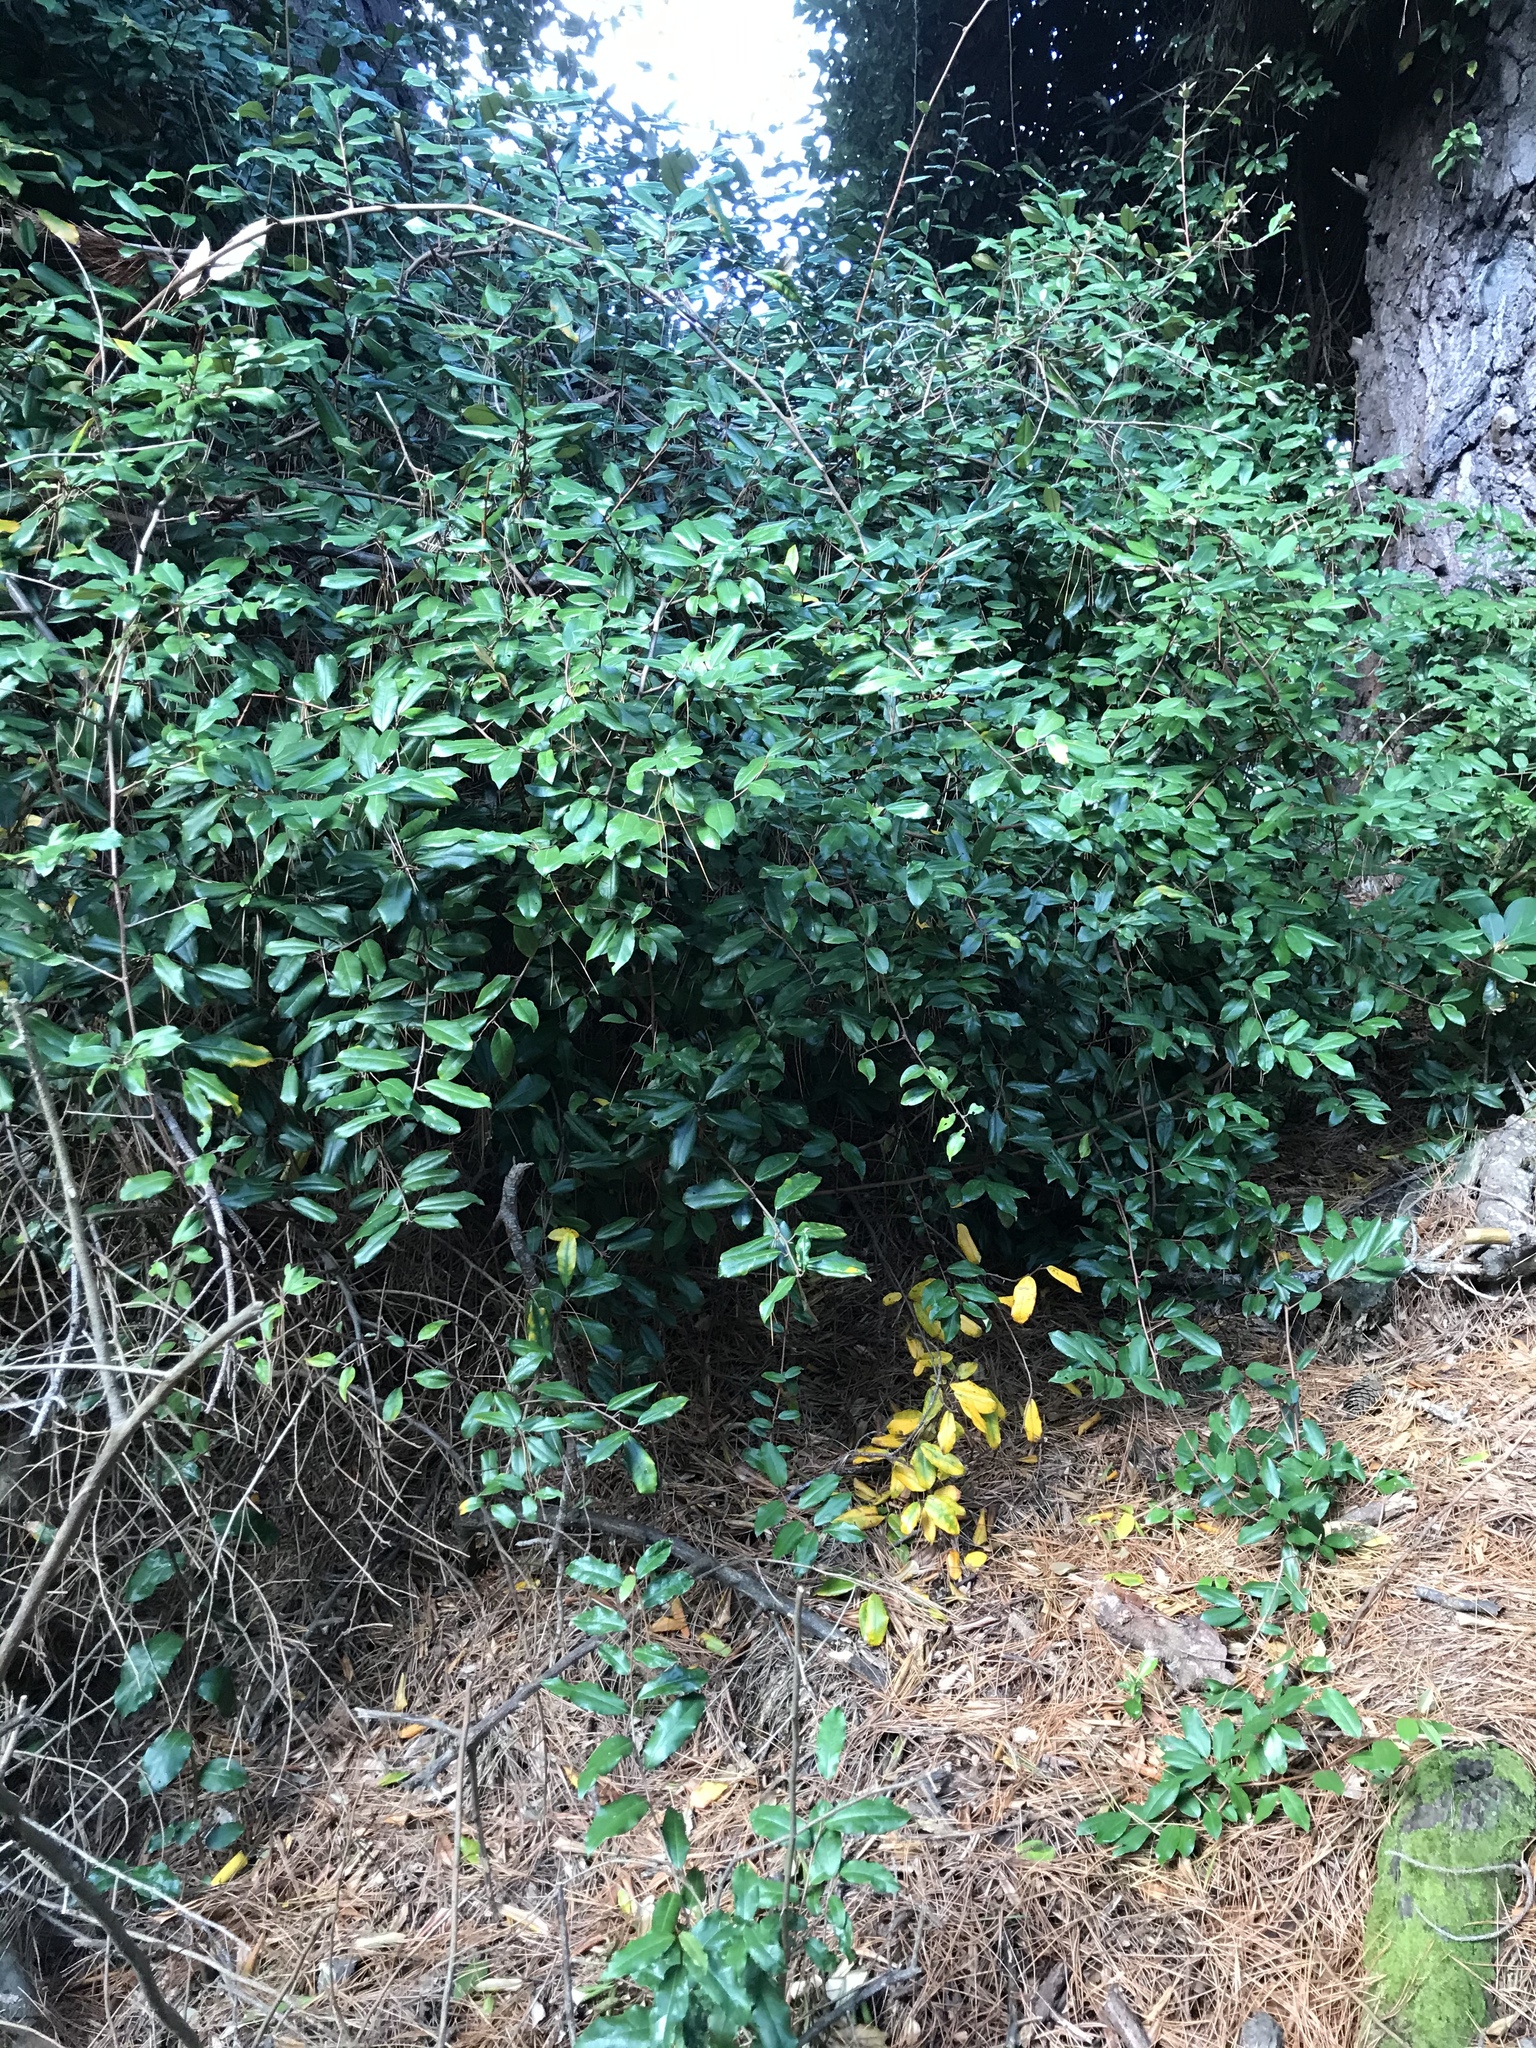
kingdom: Plantae
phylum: Tracheophyta
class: Magnoliopsida
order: Rosales
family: Elaeagnaceae
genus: Elaeagnus
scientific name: Elaeagnus reflexa
